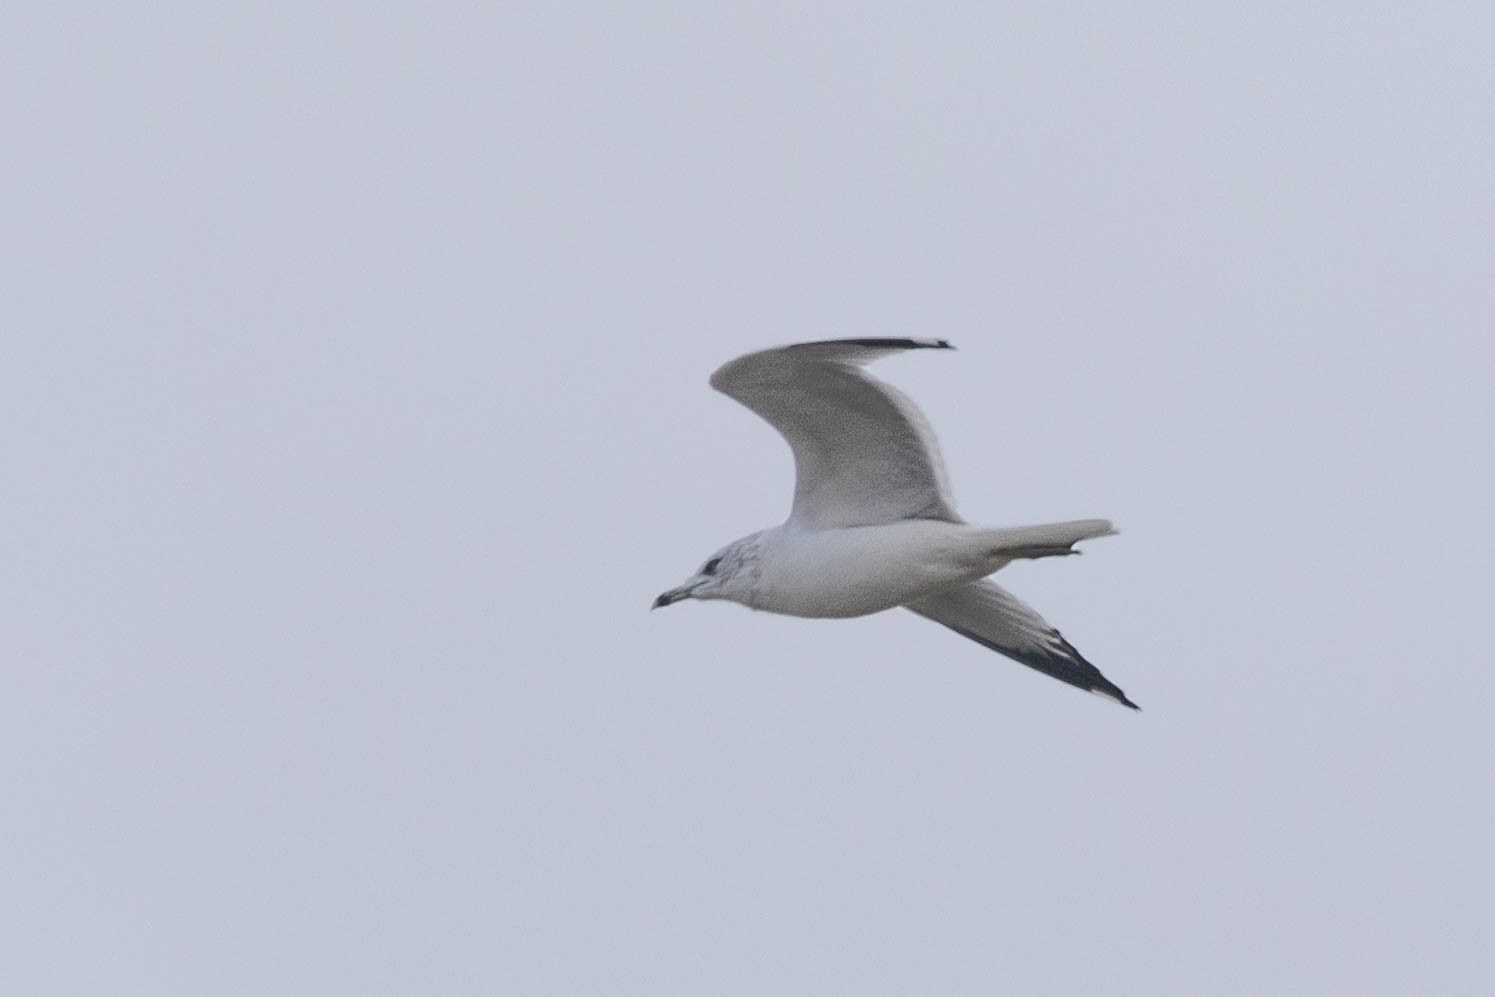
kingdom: Animalia
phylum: Chordata
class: Aves
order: Charadriiformes
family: Laridae
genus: Larus
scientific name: Larus delawarensis
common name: Ring-billed gull
